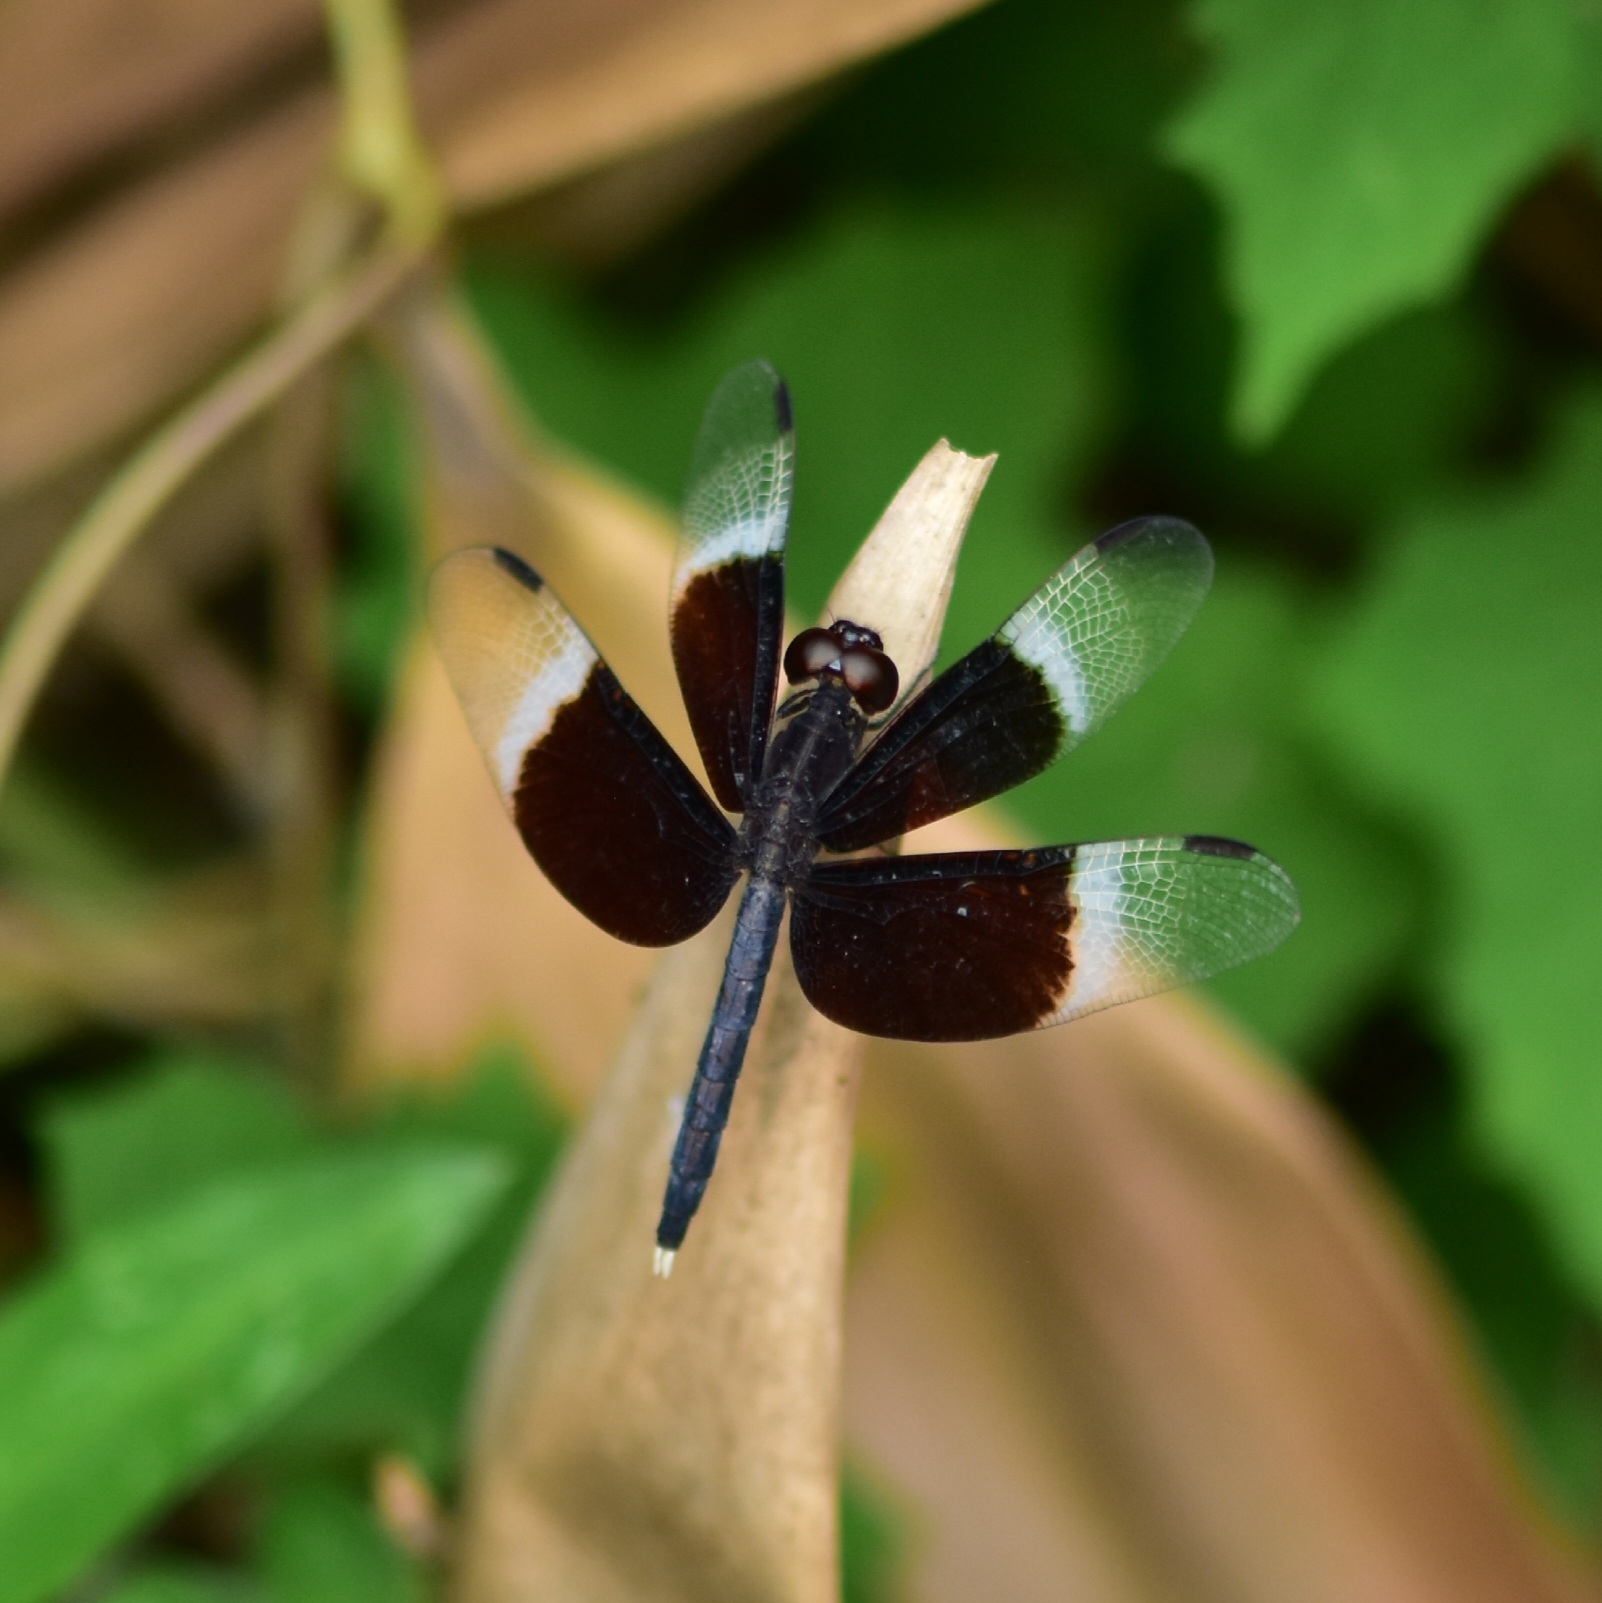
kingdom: Animalia
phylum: Arthropoda
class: Insecta
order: Odonata
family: Libellulidae
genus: Neurothemis
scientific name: Neurothemis tullia
